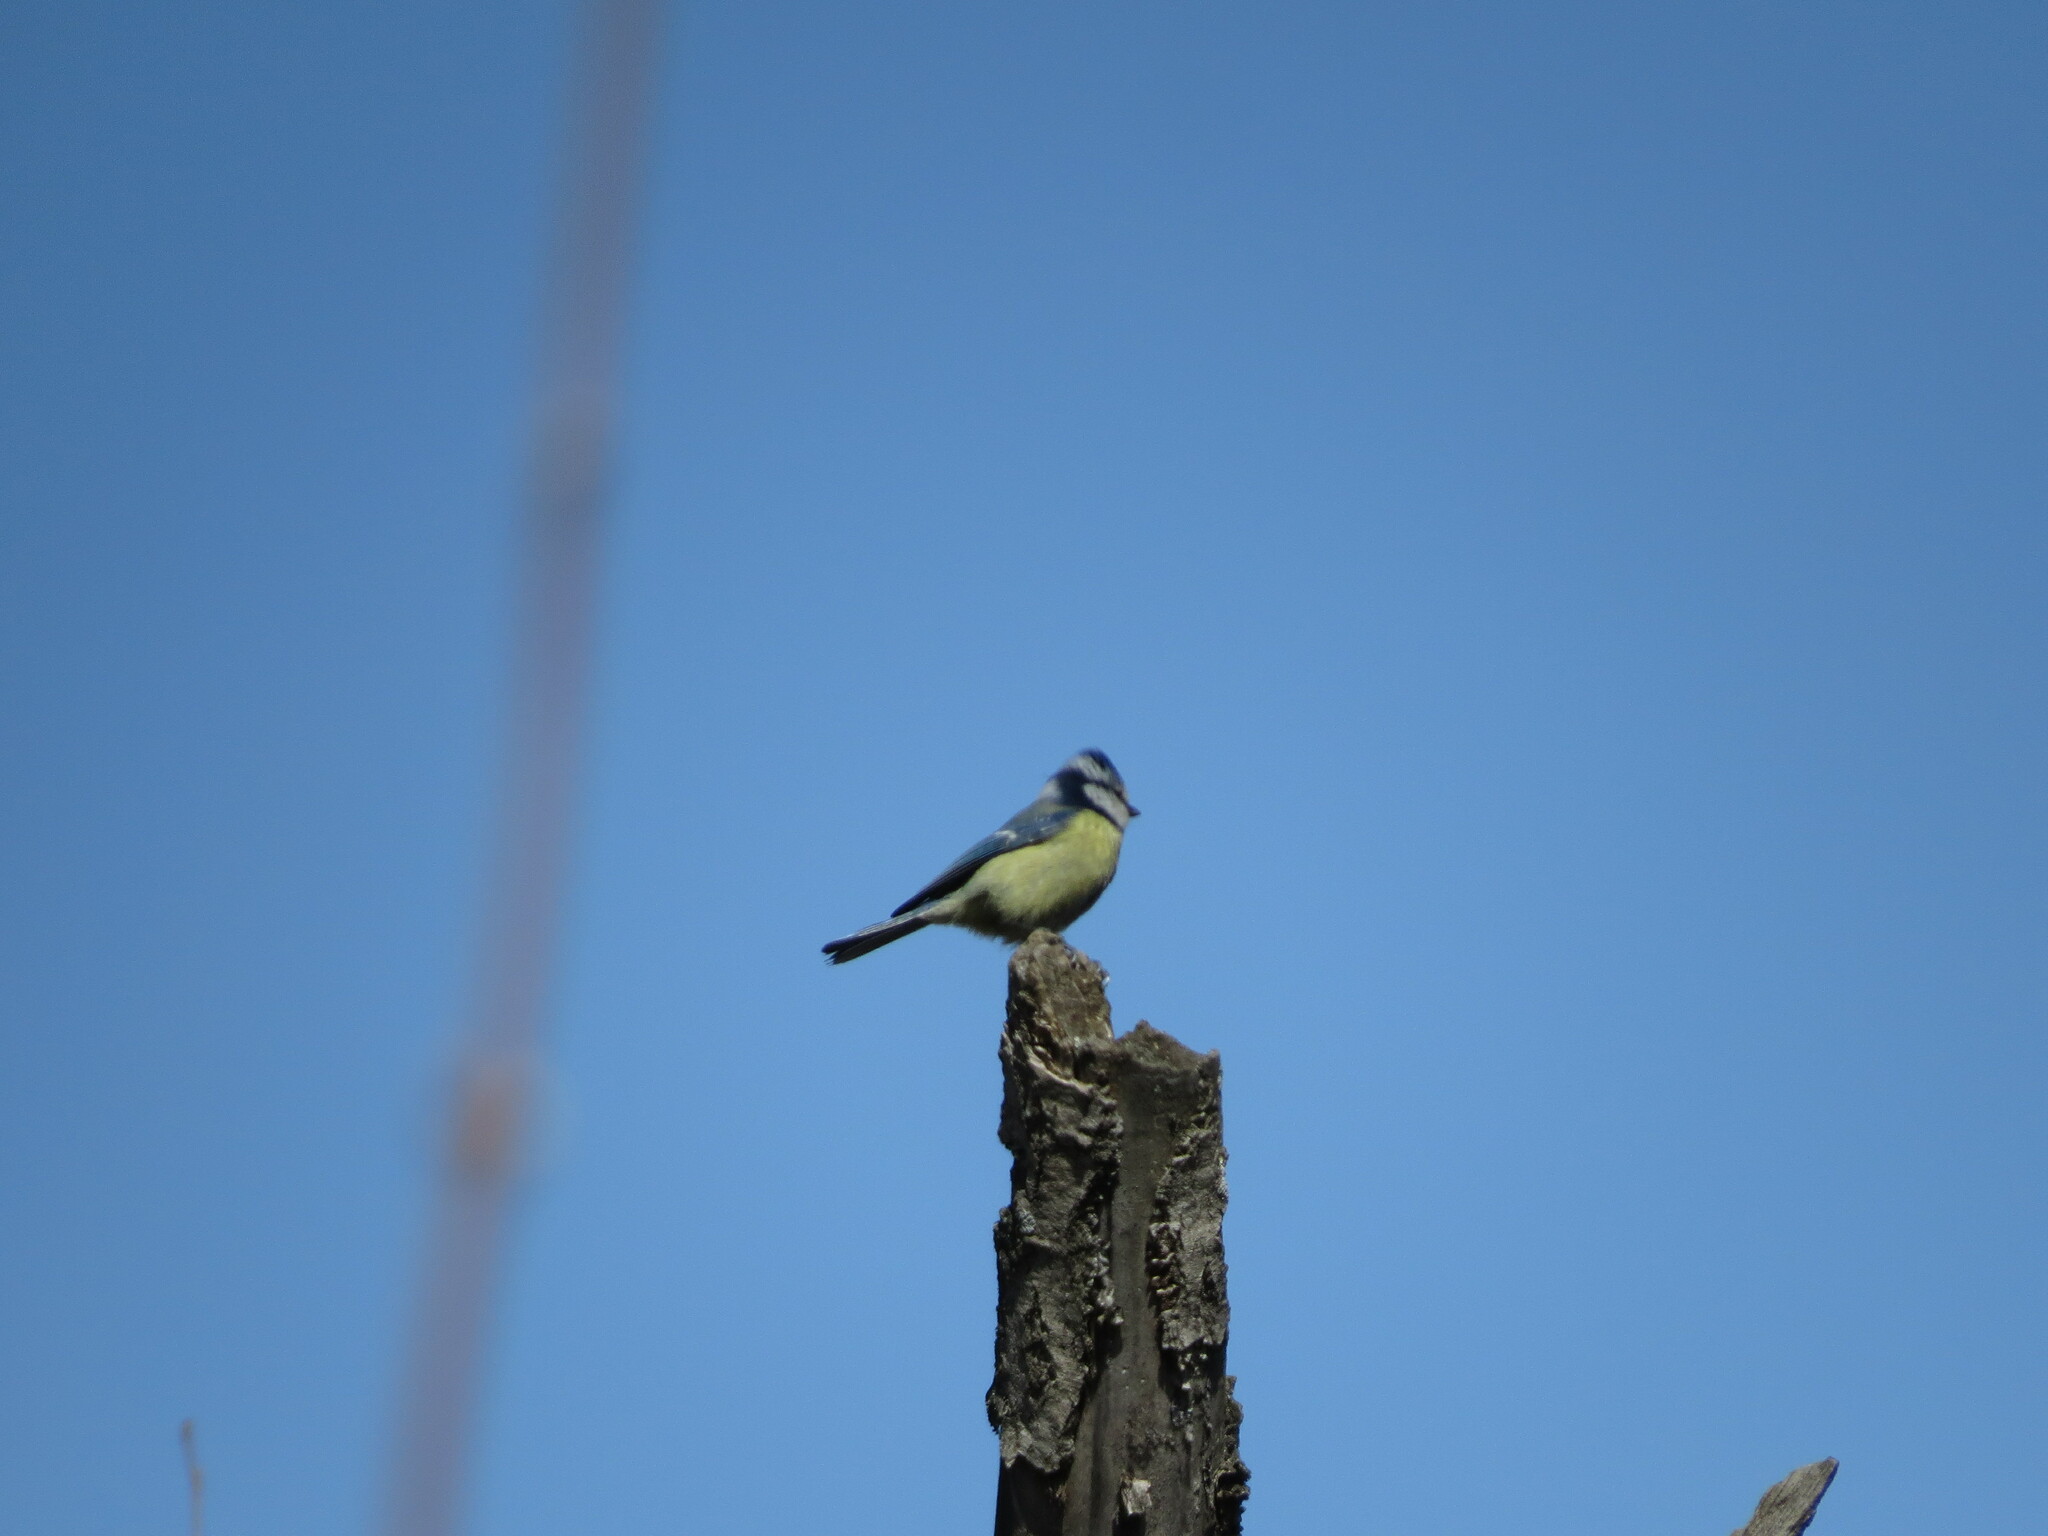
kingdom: Animalia
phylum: Chordata
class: Aves
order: Passeriformes
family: Paridae
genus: Cyanistes
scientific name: Cyanistes caeruleus
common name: Eurasian blue tit
